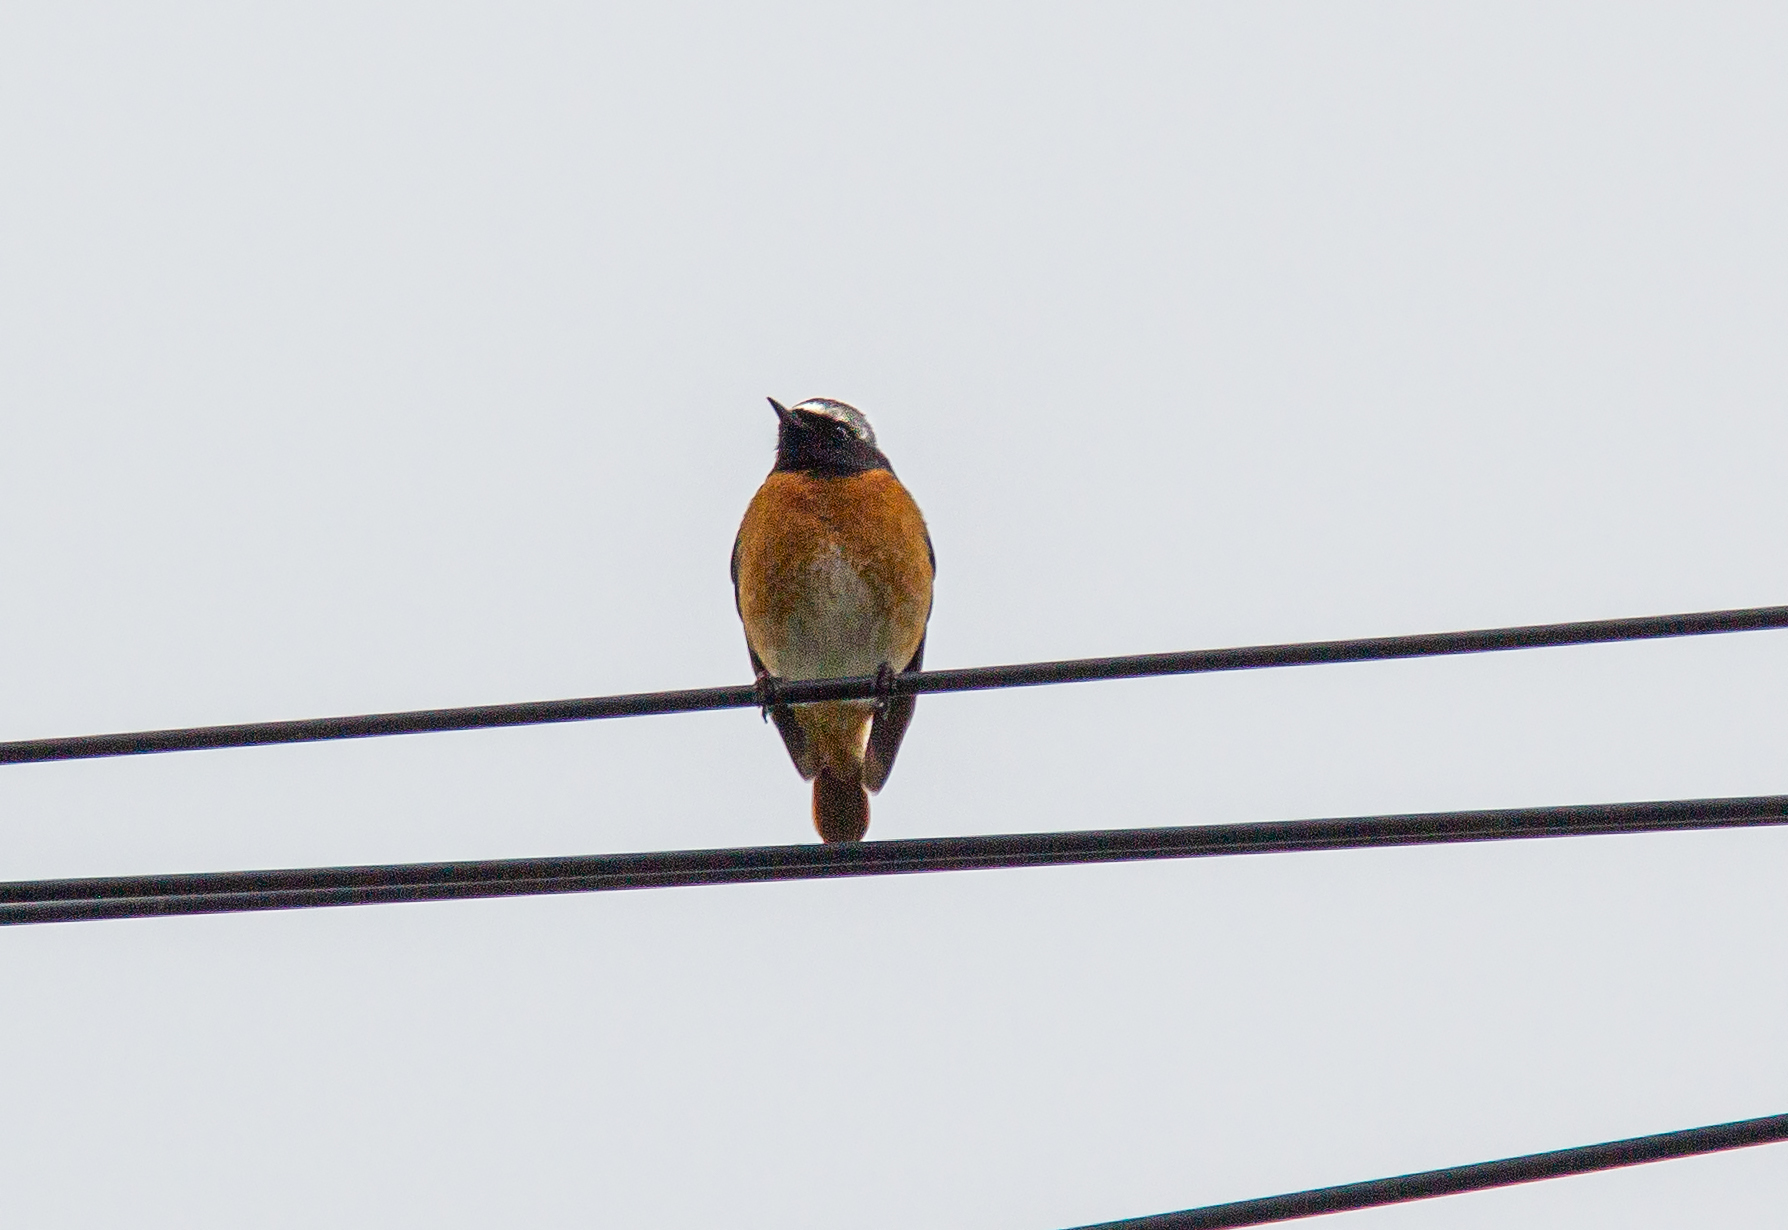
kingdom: Animalia
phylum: Chordata
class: Aves
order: Passeriformes
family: Muscicapidae
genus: Phoenicurus
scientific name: Phoenicurus phoenicurus
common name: Common redstart
